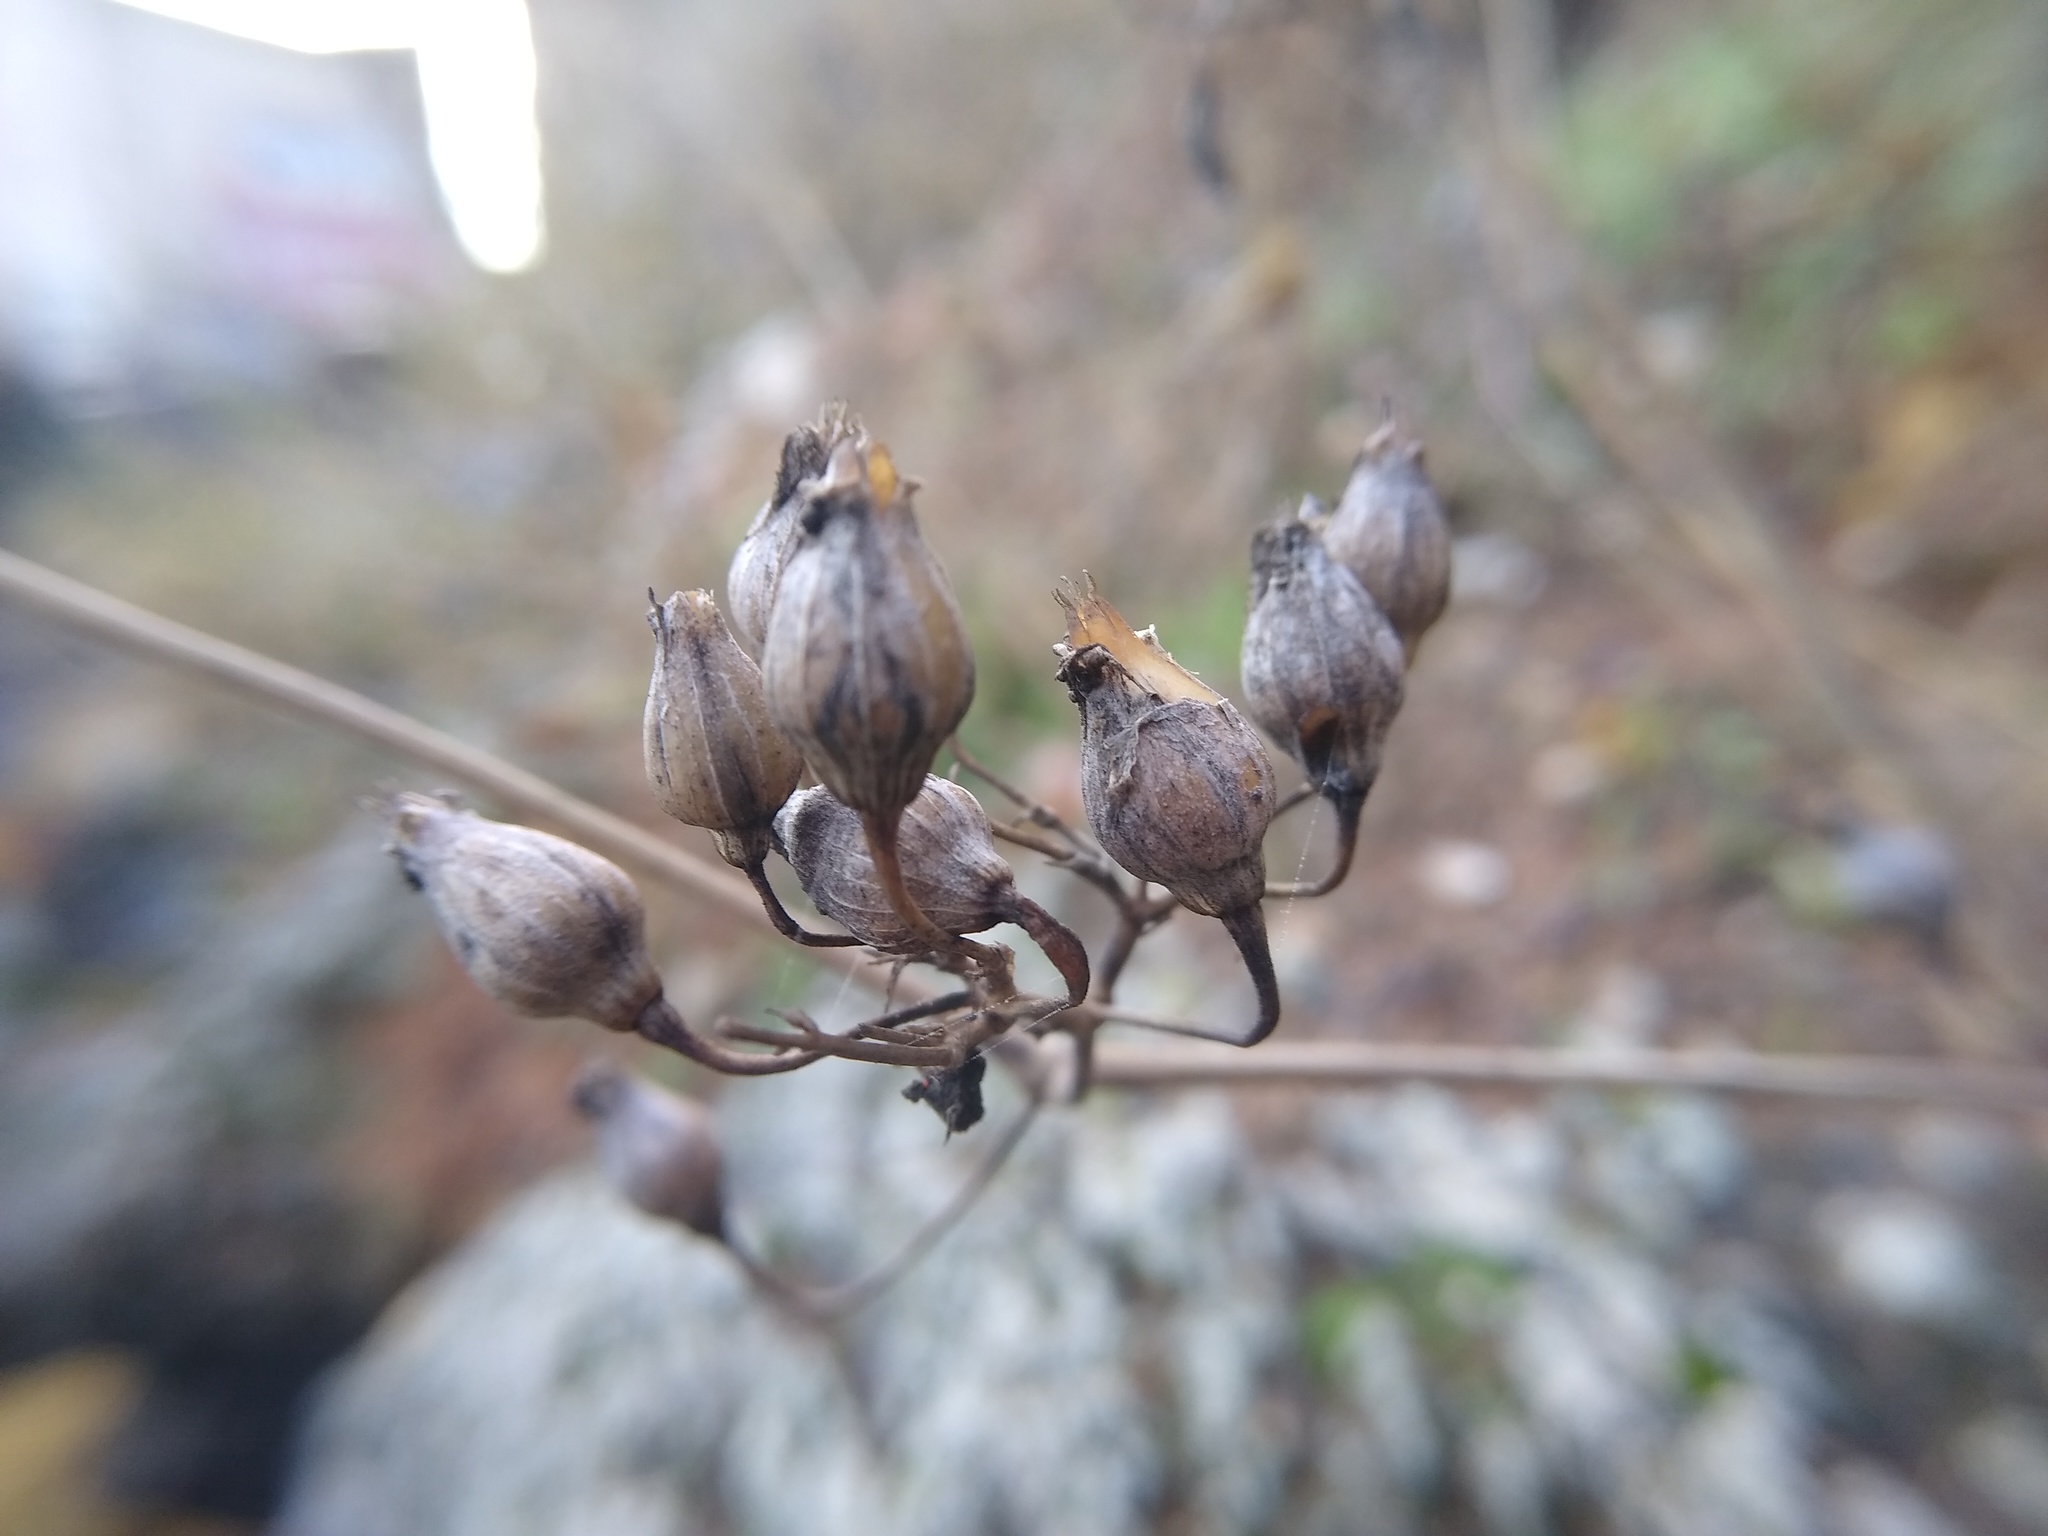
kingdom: Plantae
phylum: Tracheophyta
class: Magnoliopsida
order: Caryophyllales
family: Caryophyllaceae
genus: Silene
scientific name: Silene csereii
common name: Balkan catchfly
